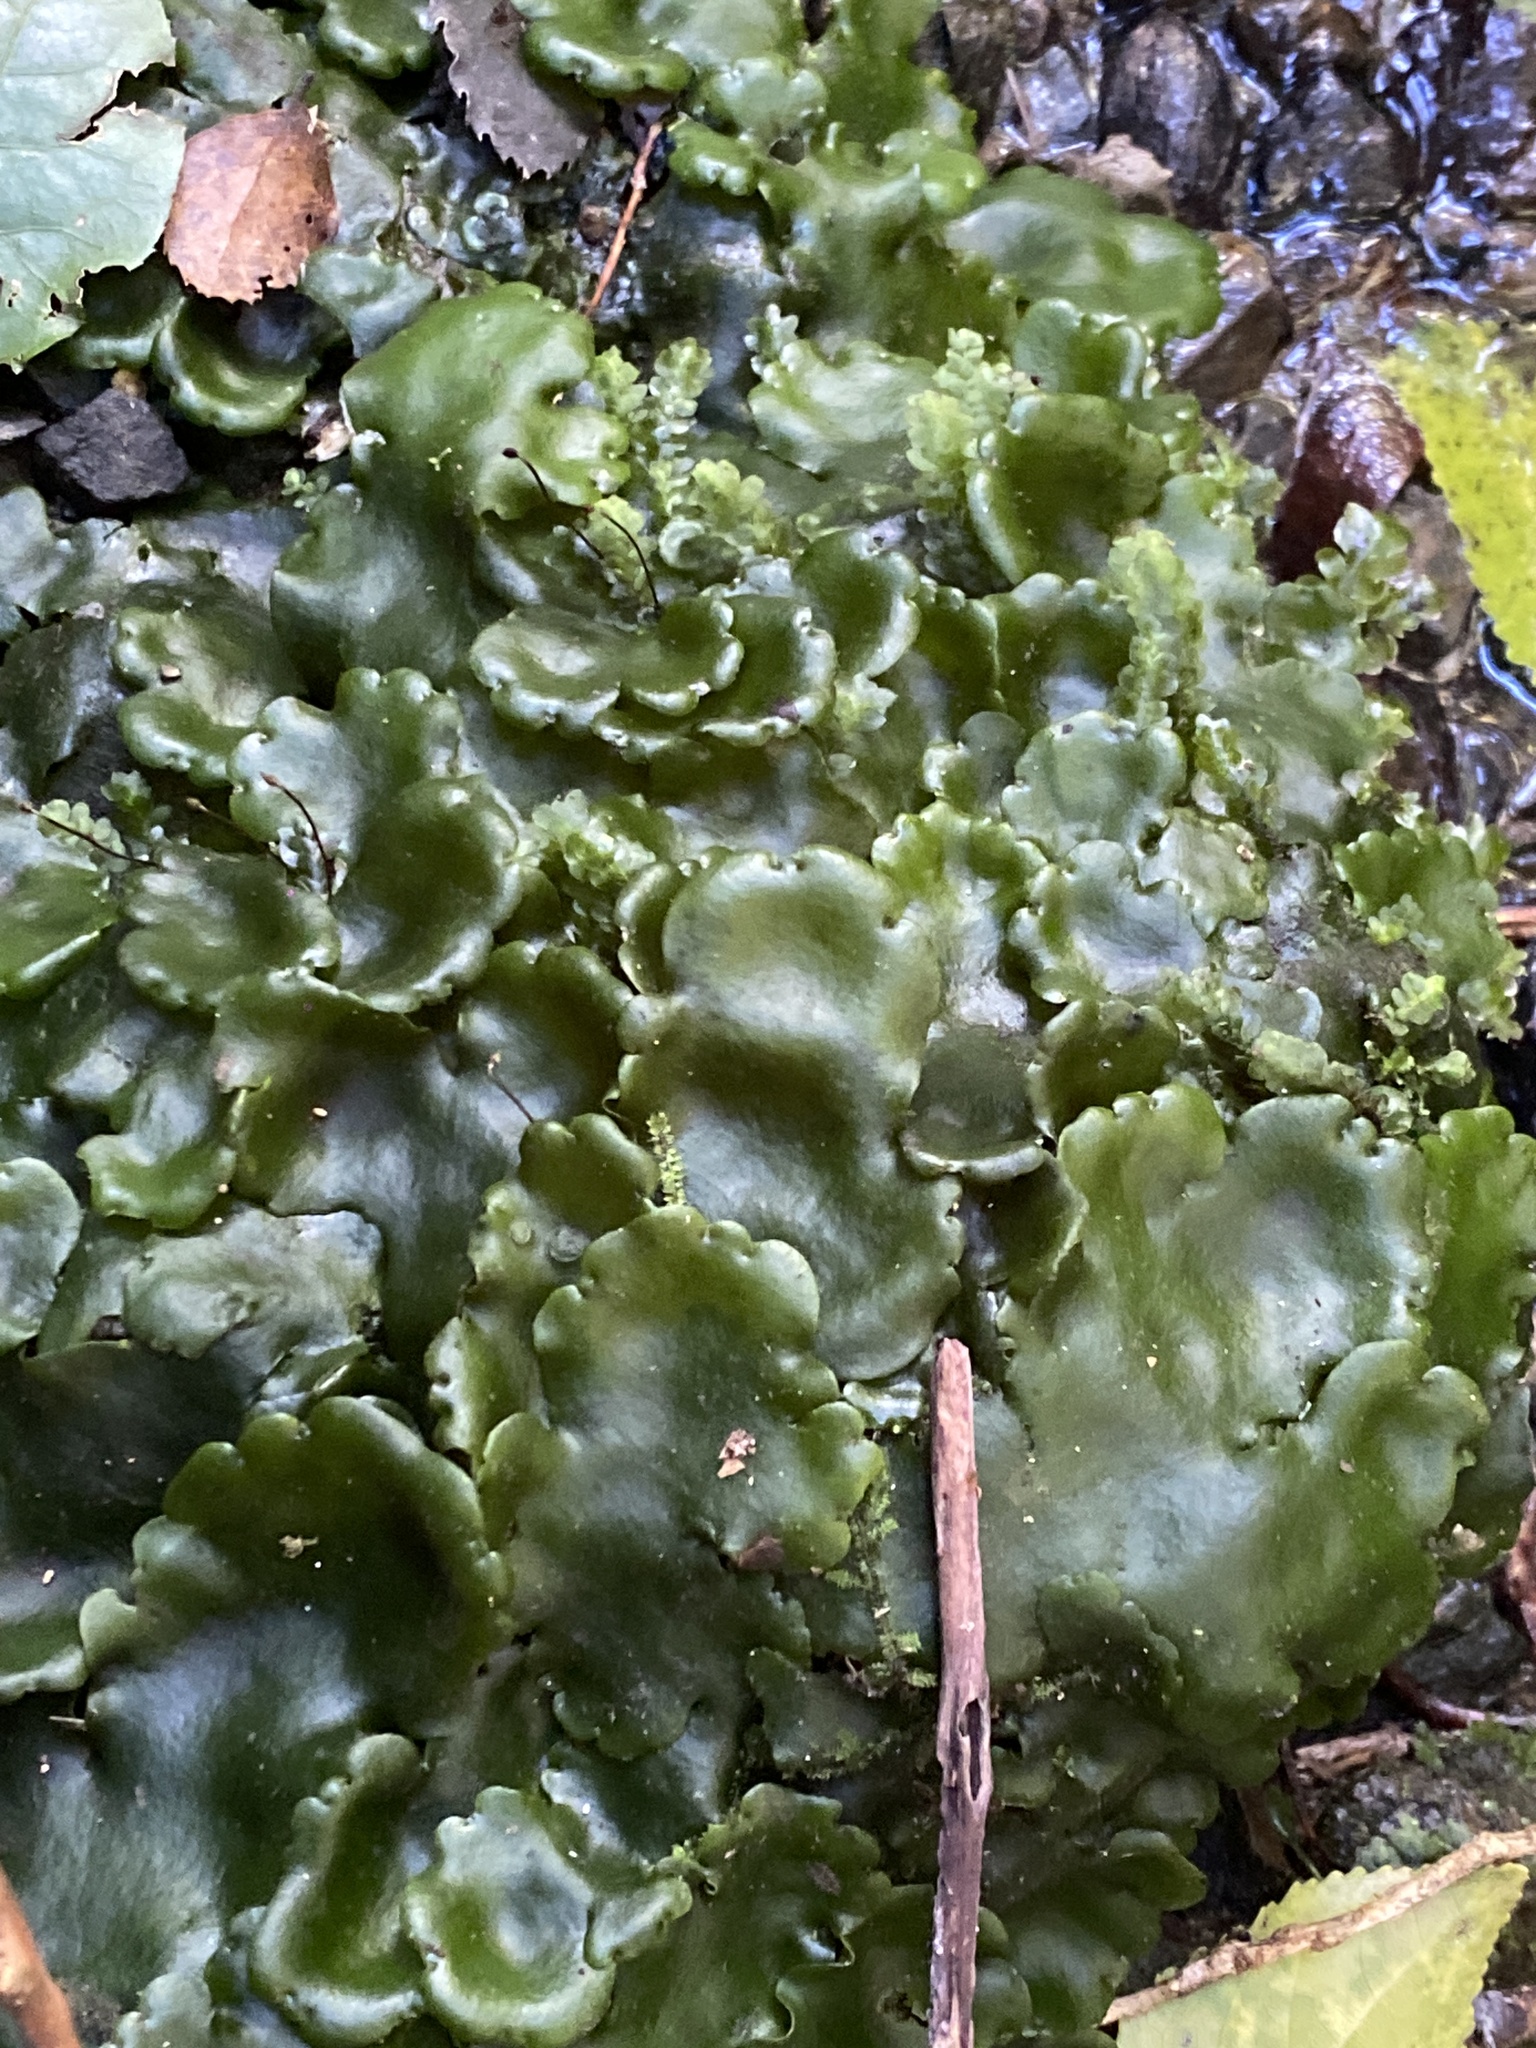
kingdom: Plantae
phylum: Marchantiophyta
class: Marchantiopsida
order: Marchantiales
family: Monocleaceae
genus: Monoclea
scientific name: Monoclea forsteri
